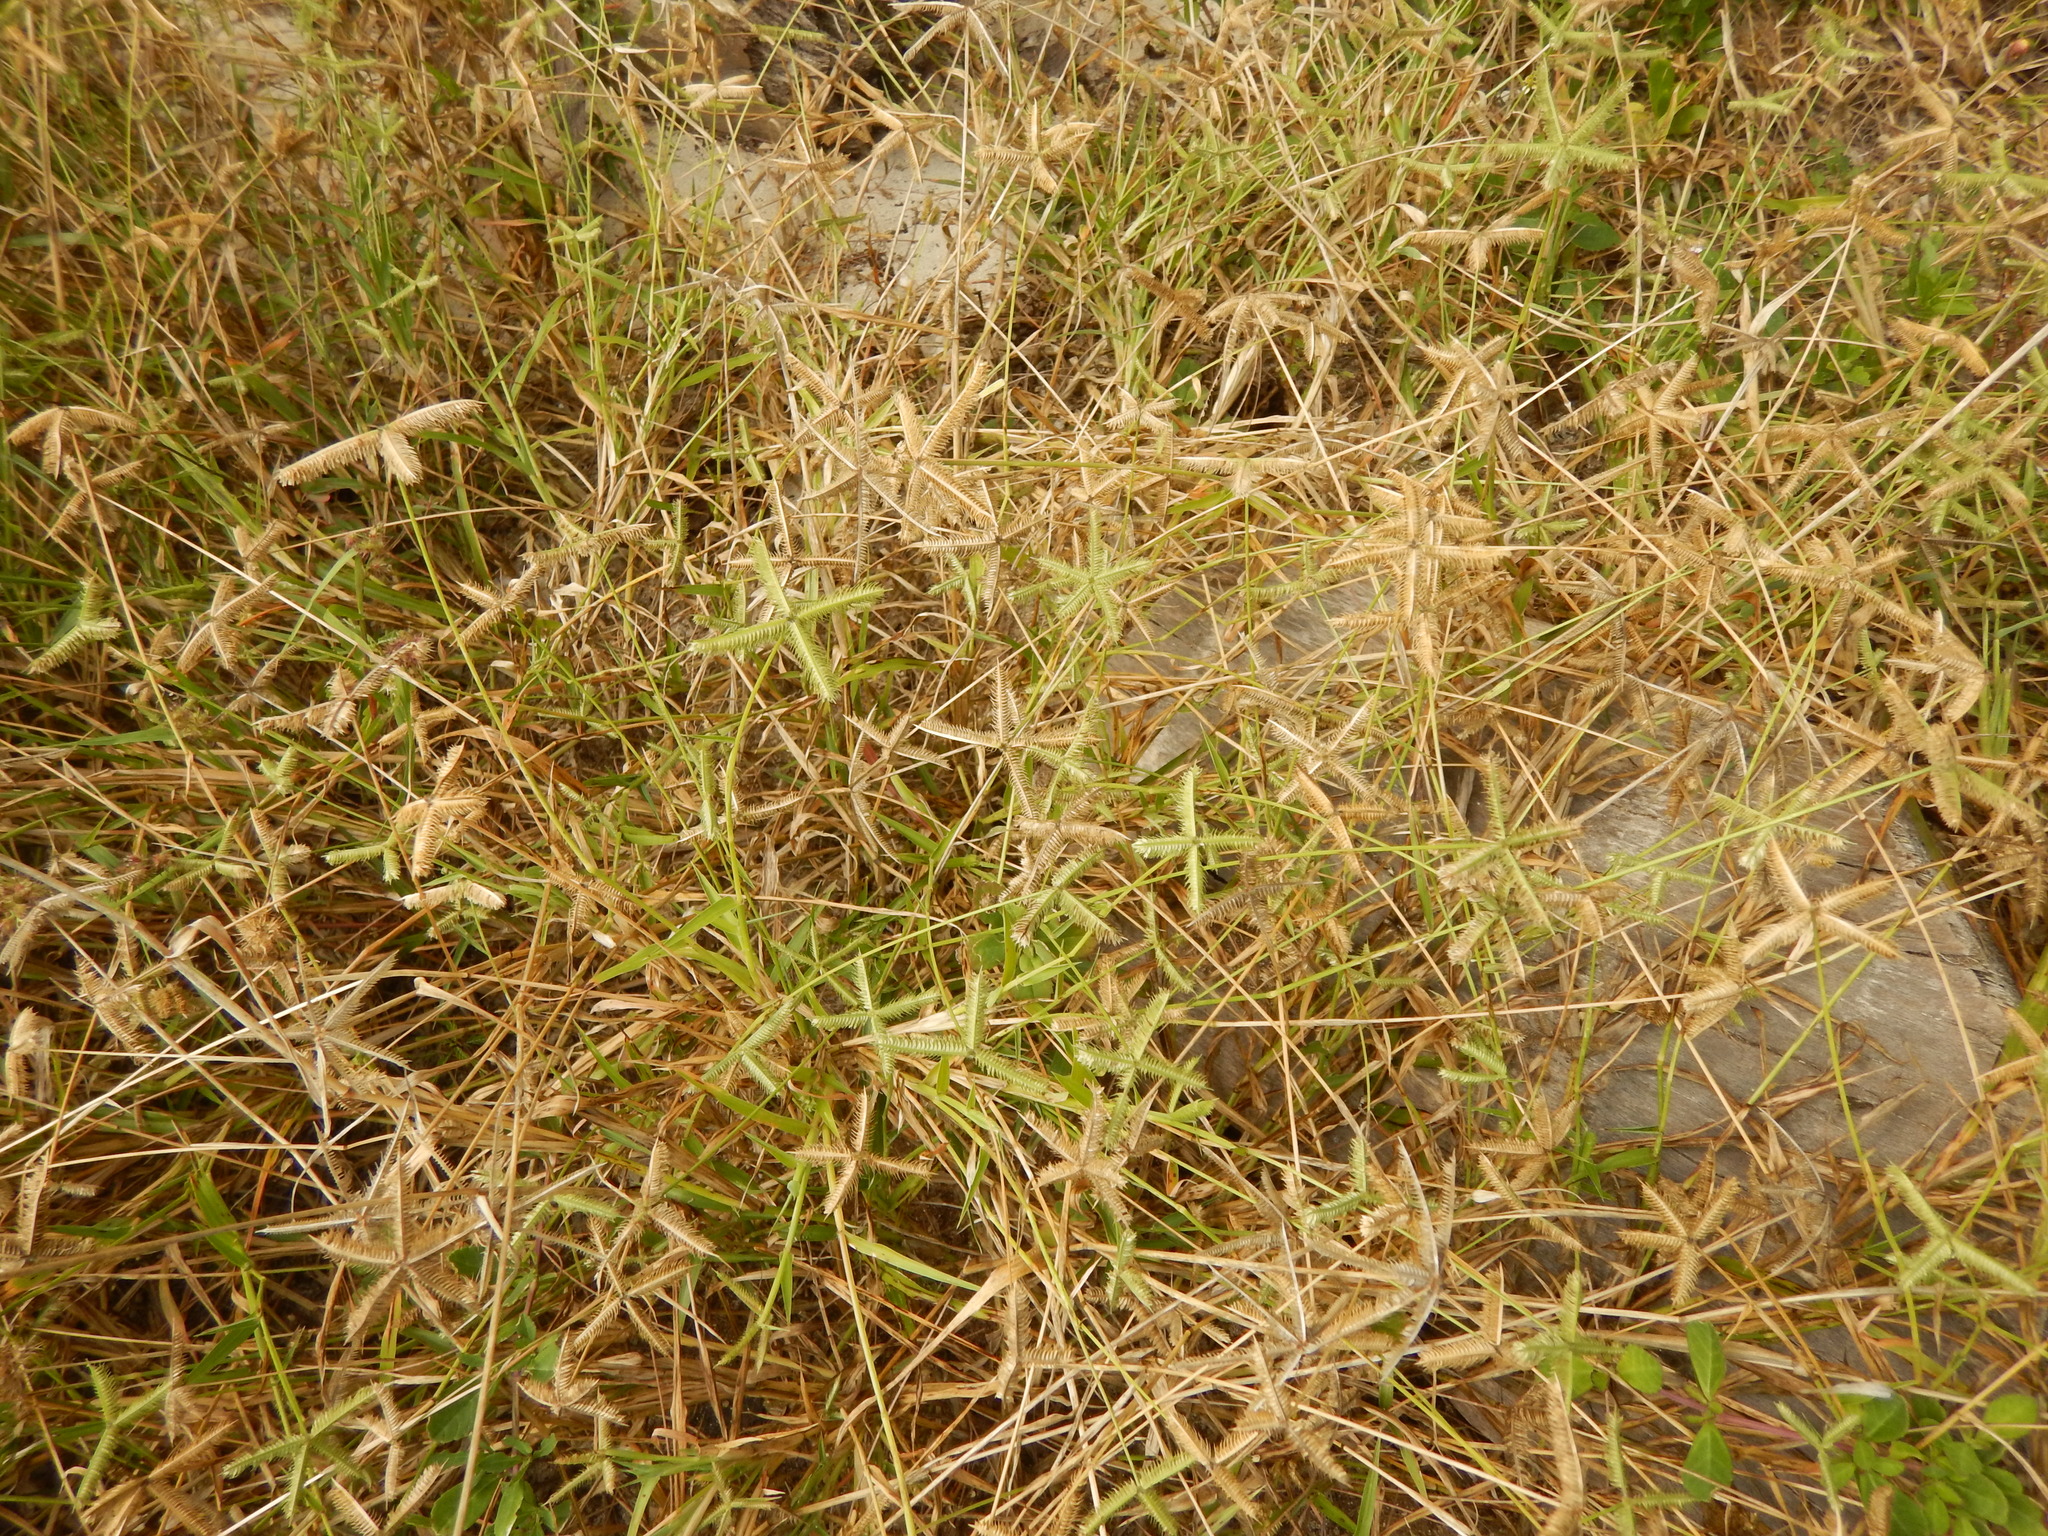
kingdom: Plantae
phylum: Tracheophyta
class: Liliopsida
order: Poales
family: Poaceae
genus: Dactyloctenium
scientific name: Dactyloctenium aegyptium
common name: Egyptian grass
